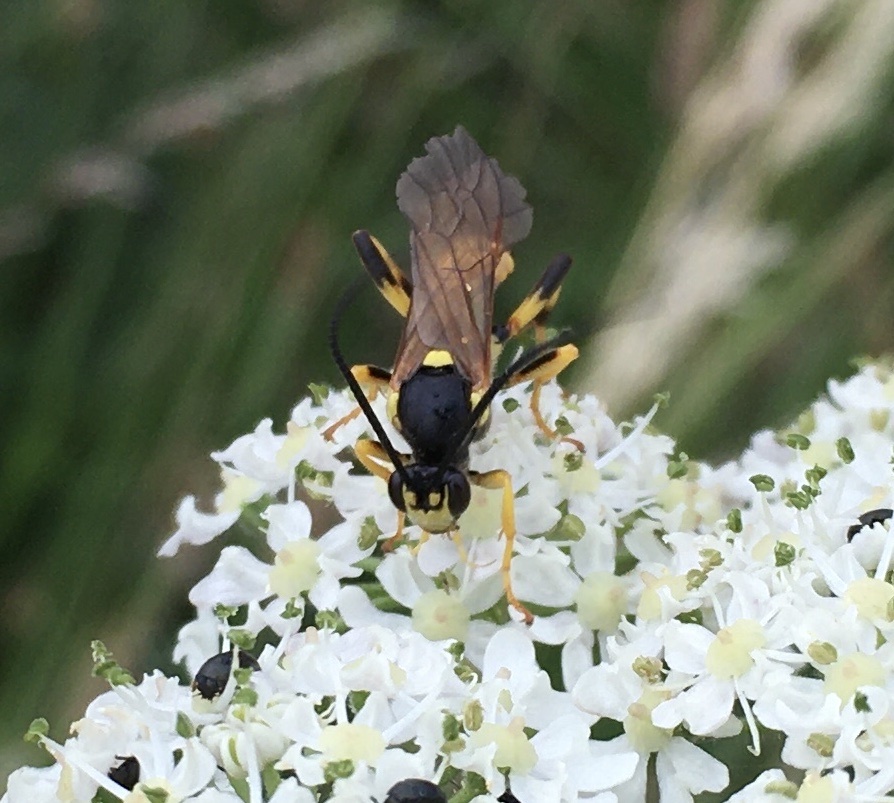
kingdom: Animalia
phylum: Arthropoda
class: Insecta
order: Hymenoptera
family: Ichneumonidae
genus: Ichneumon
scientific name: Ichneumon xanthorius
